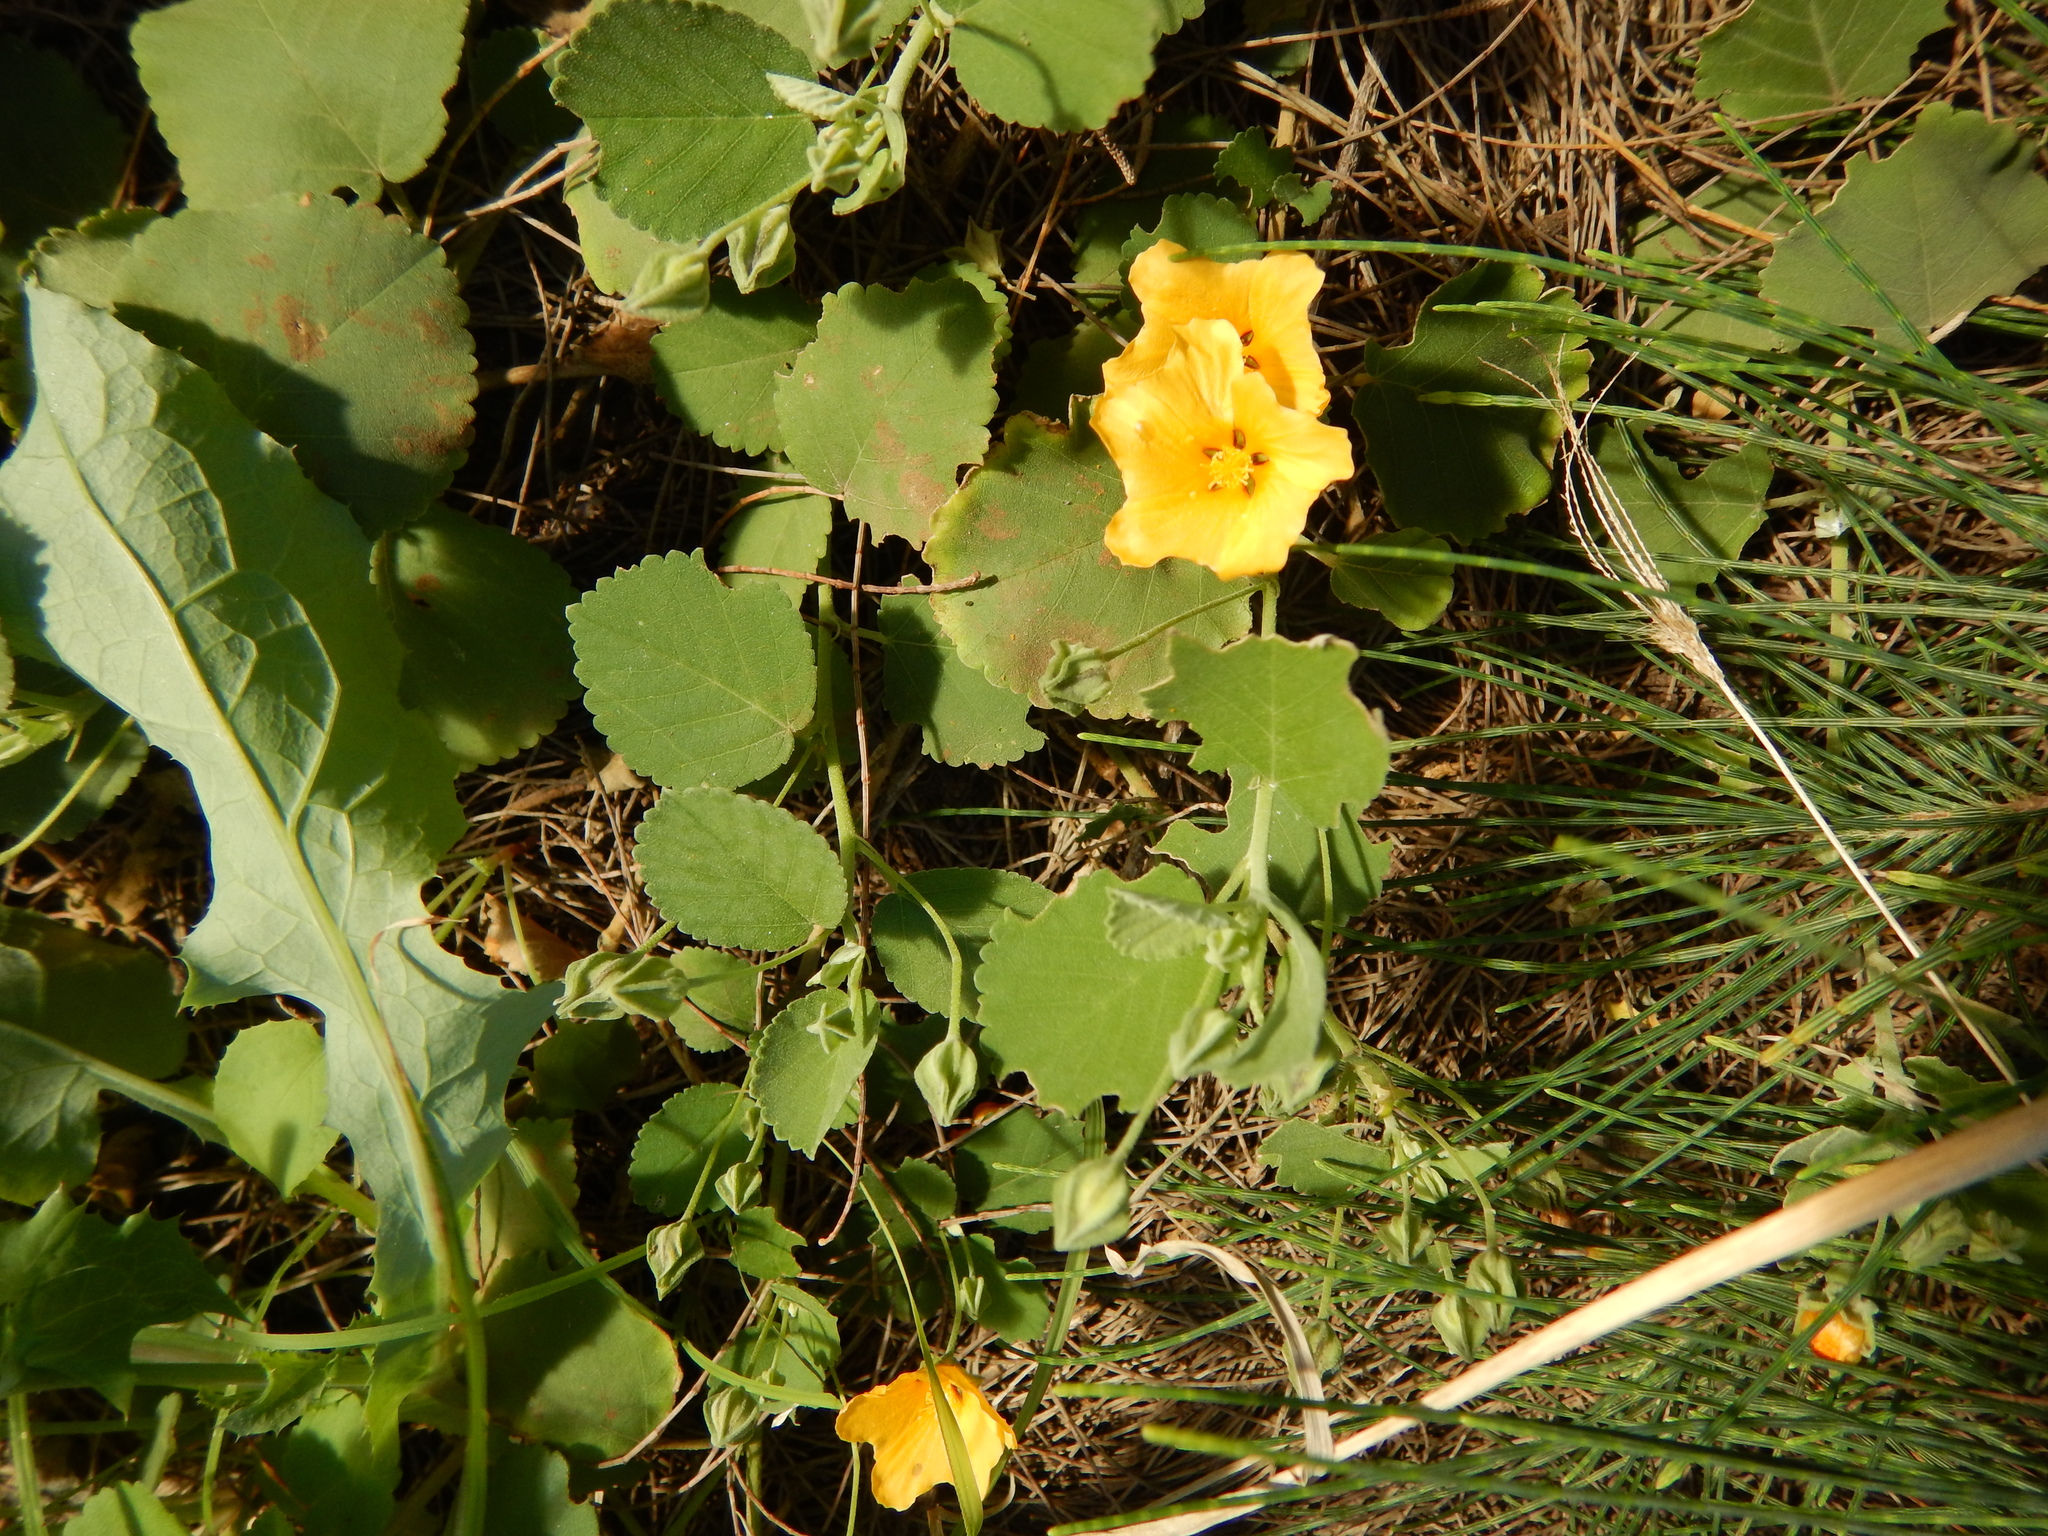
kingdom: Plantae
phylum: Tracheophyta
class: Magnoliopsida
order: Malvales
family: Malvaceae
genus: Sida
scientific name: Sida fallax
